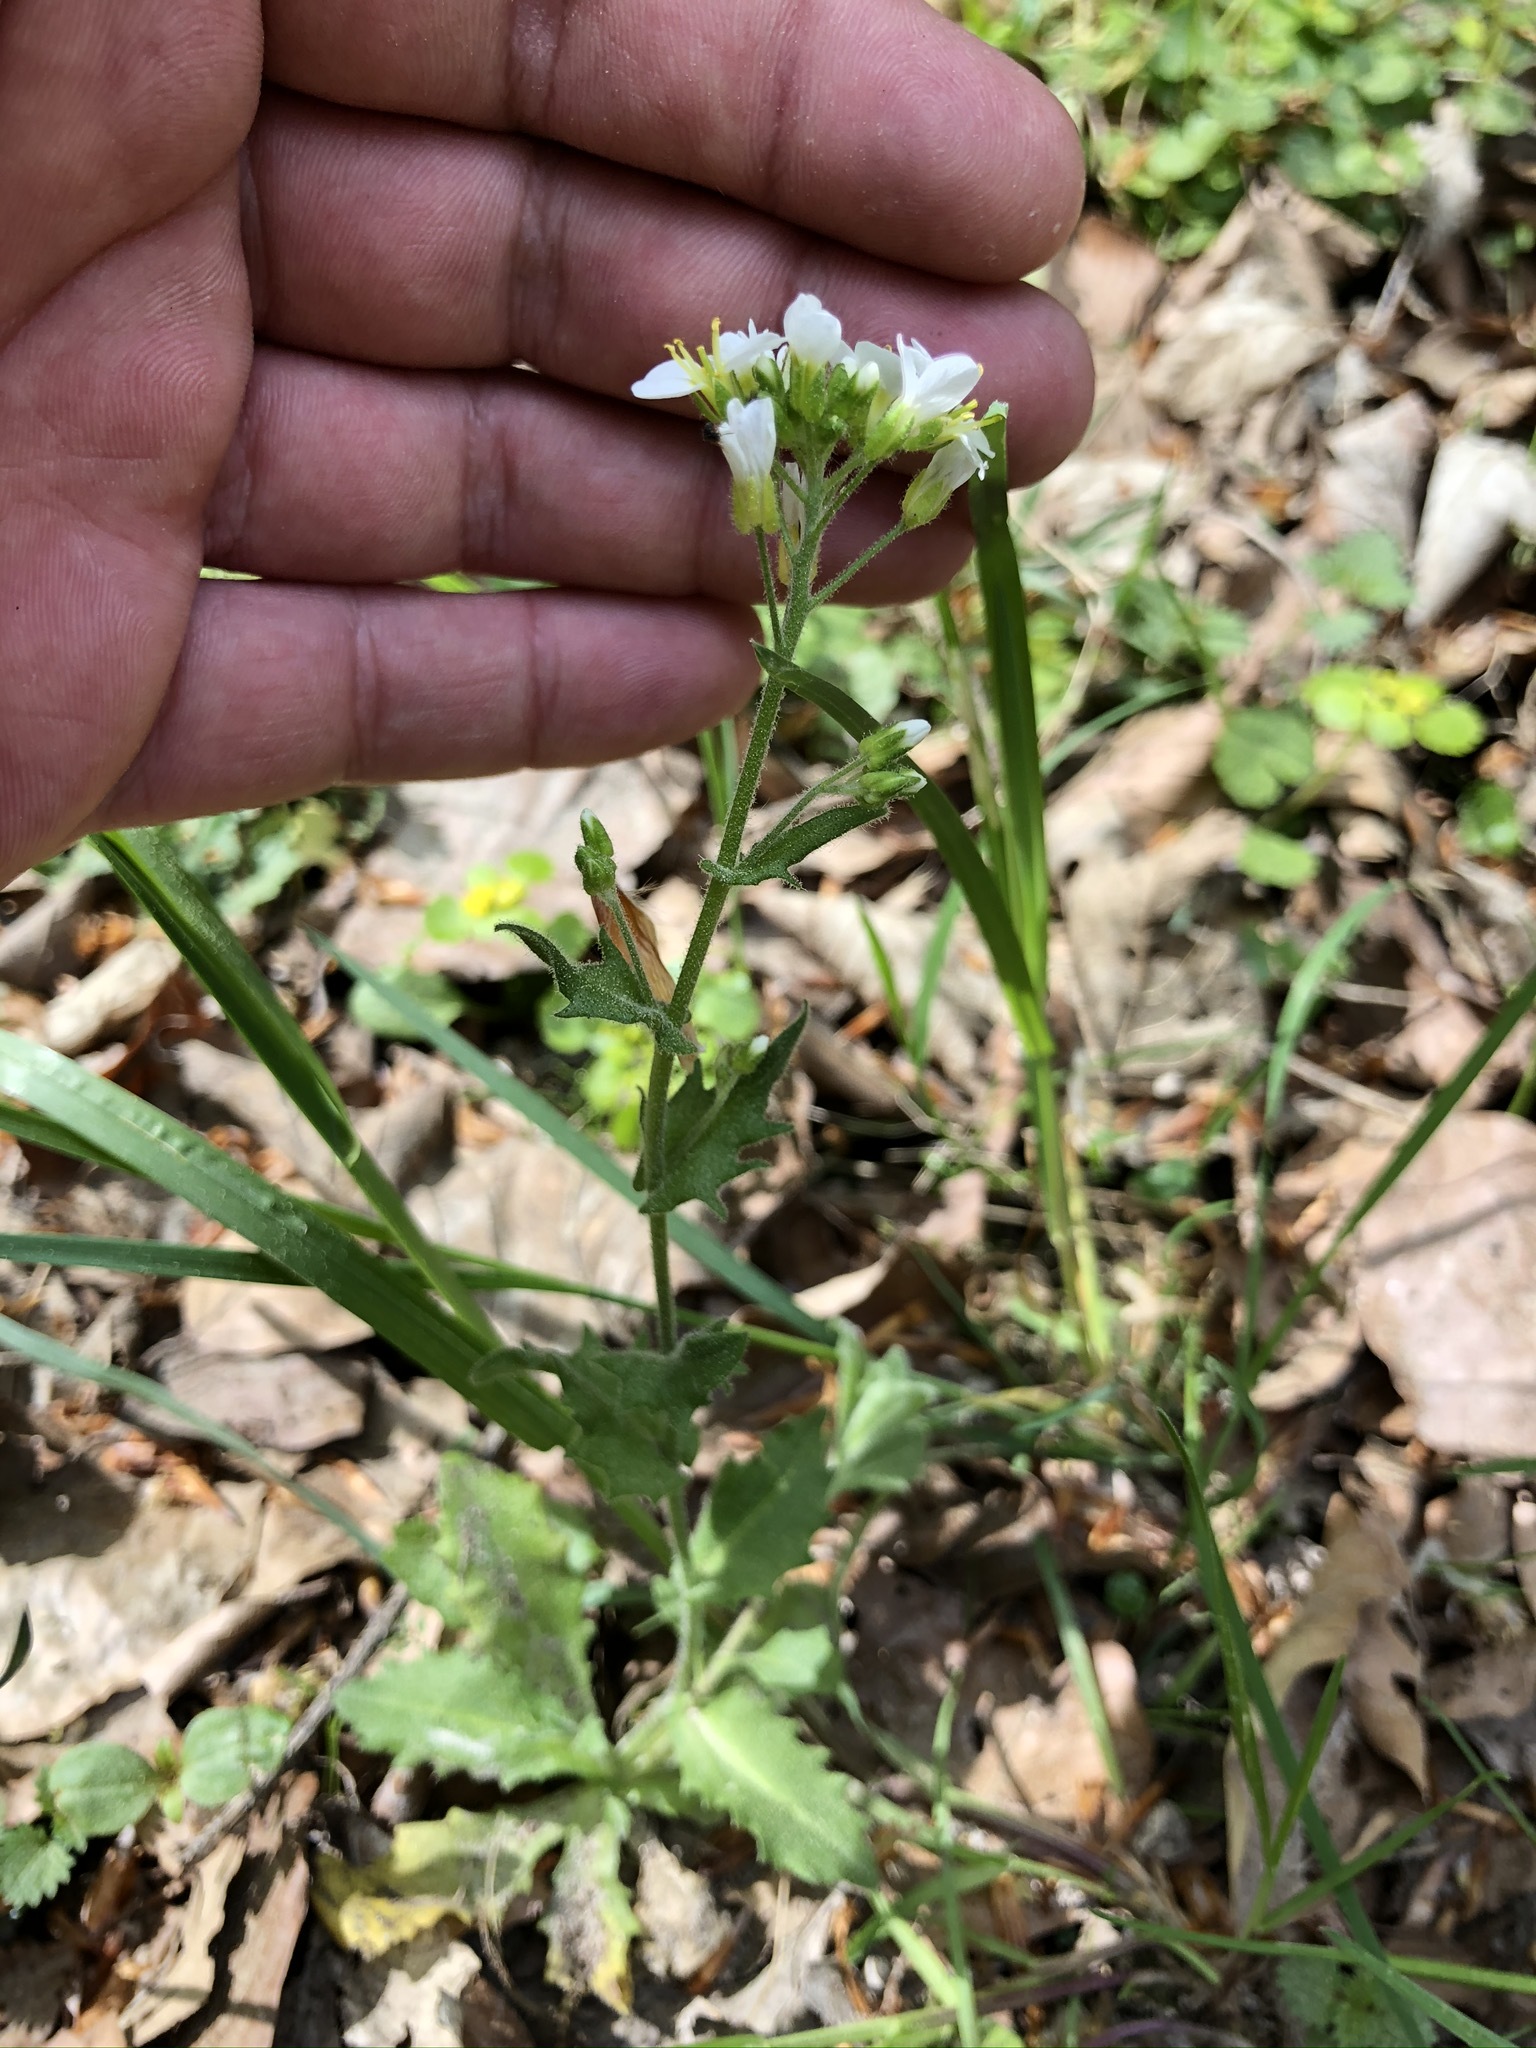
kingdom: Plantae
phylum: Tracheophyta
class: Magnoliopsida
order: Brassicales
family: Brassicaceae
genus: Arabis
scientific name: Arabis alpina
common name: Alpine rock-cress
